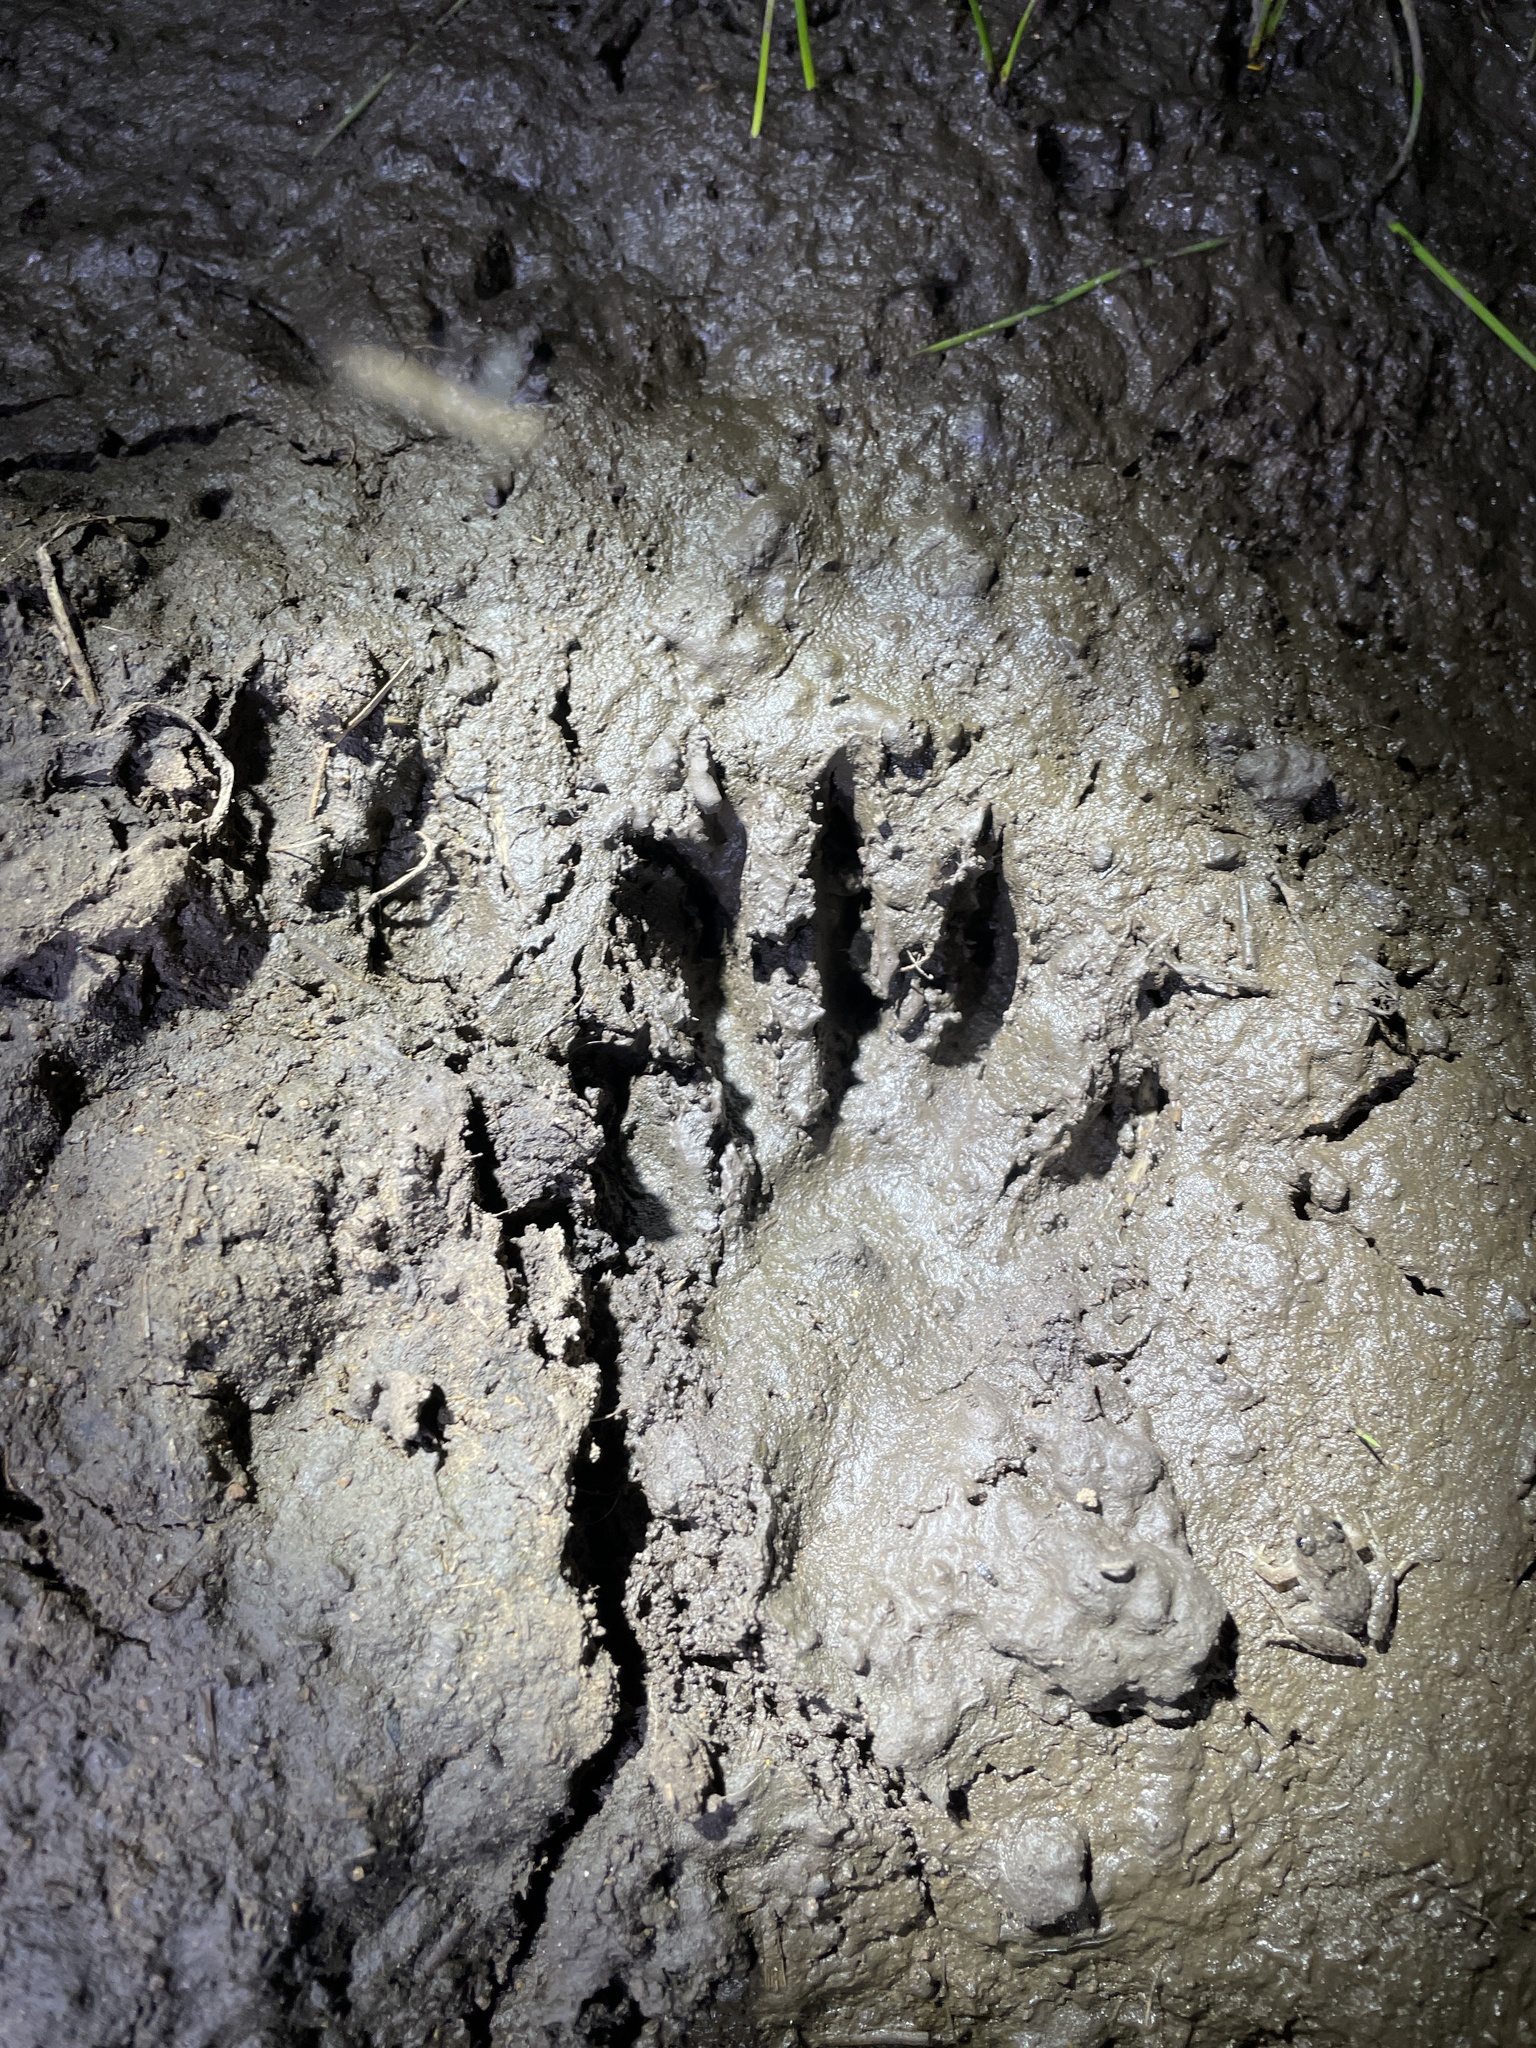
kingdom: Animalia
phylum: Chordata
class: Mammalia
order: Carnivora
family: Procyonidae
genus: Procyon
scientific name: Procyon cancrivorus
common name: Crab-eating raccoon
